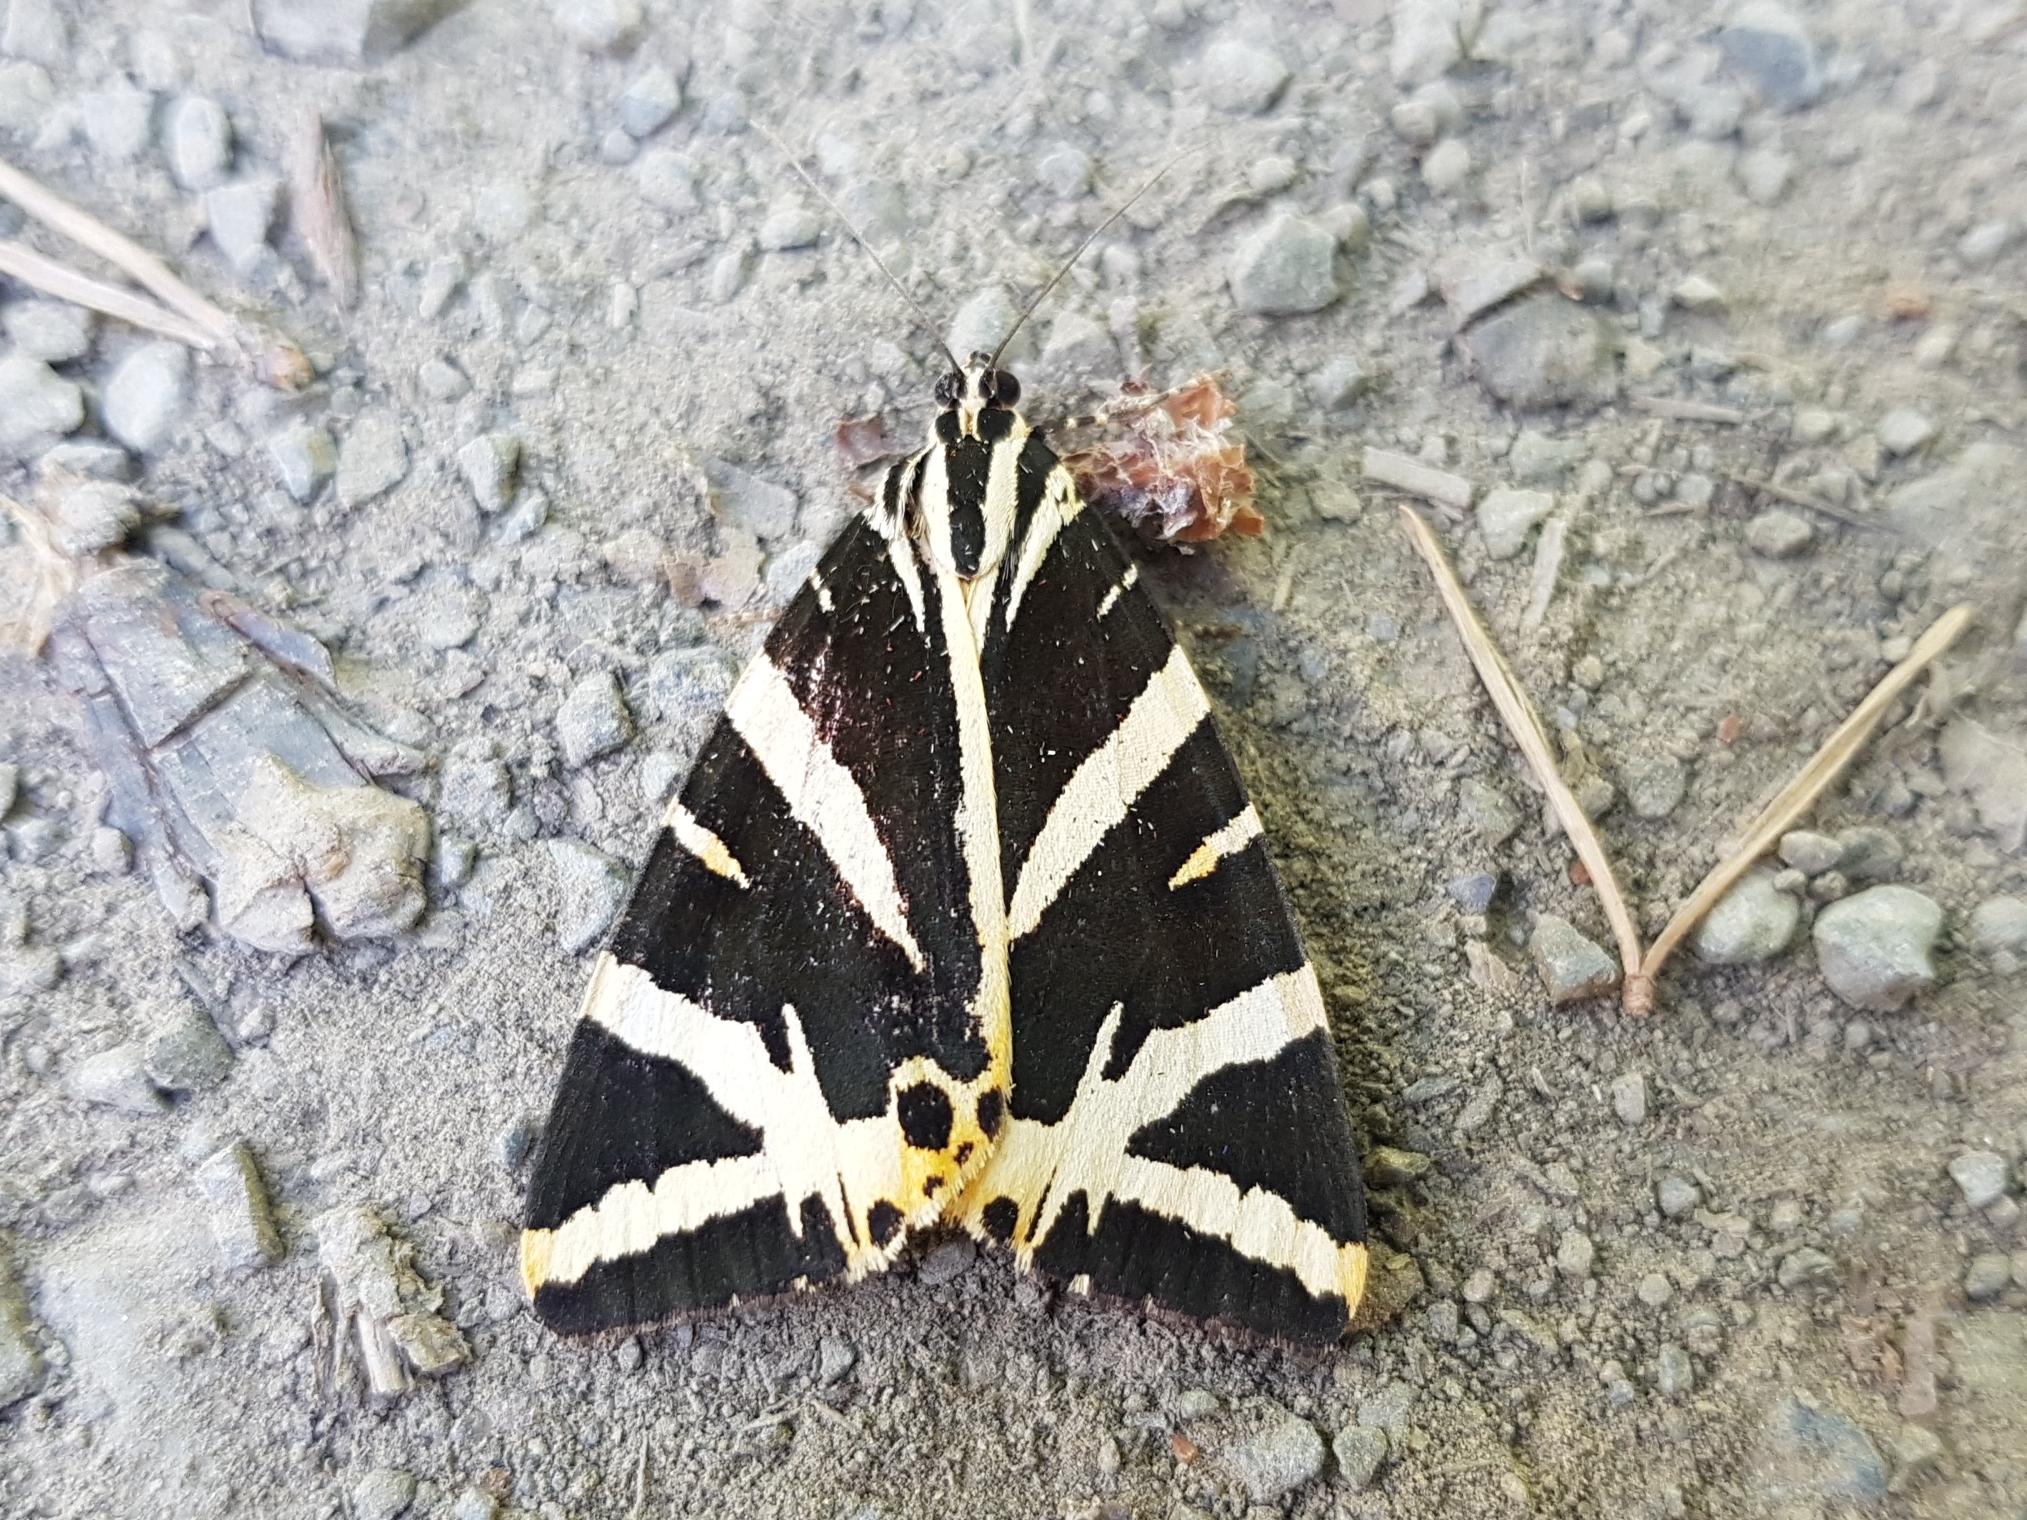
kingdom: Animalia
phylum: Arthropoda
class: Insecta
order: Lepidoptera
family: Erebidae
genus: Euplagia
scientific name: Euplagia quadripunctaria
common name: Jersey tiger
